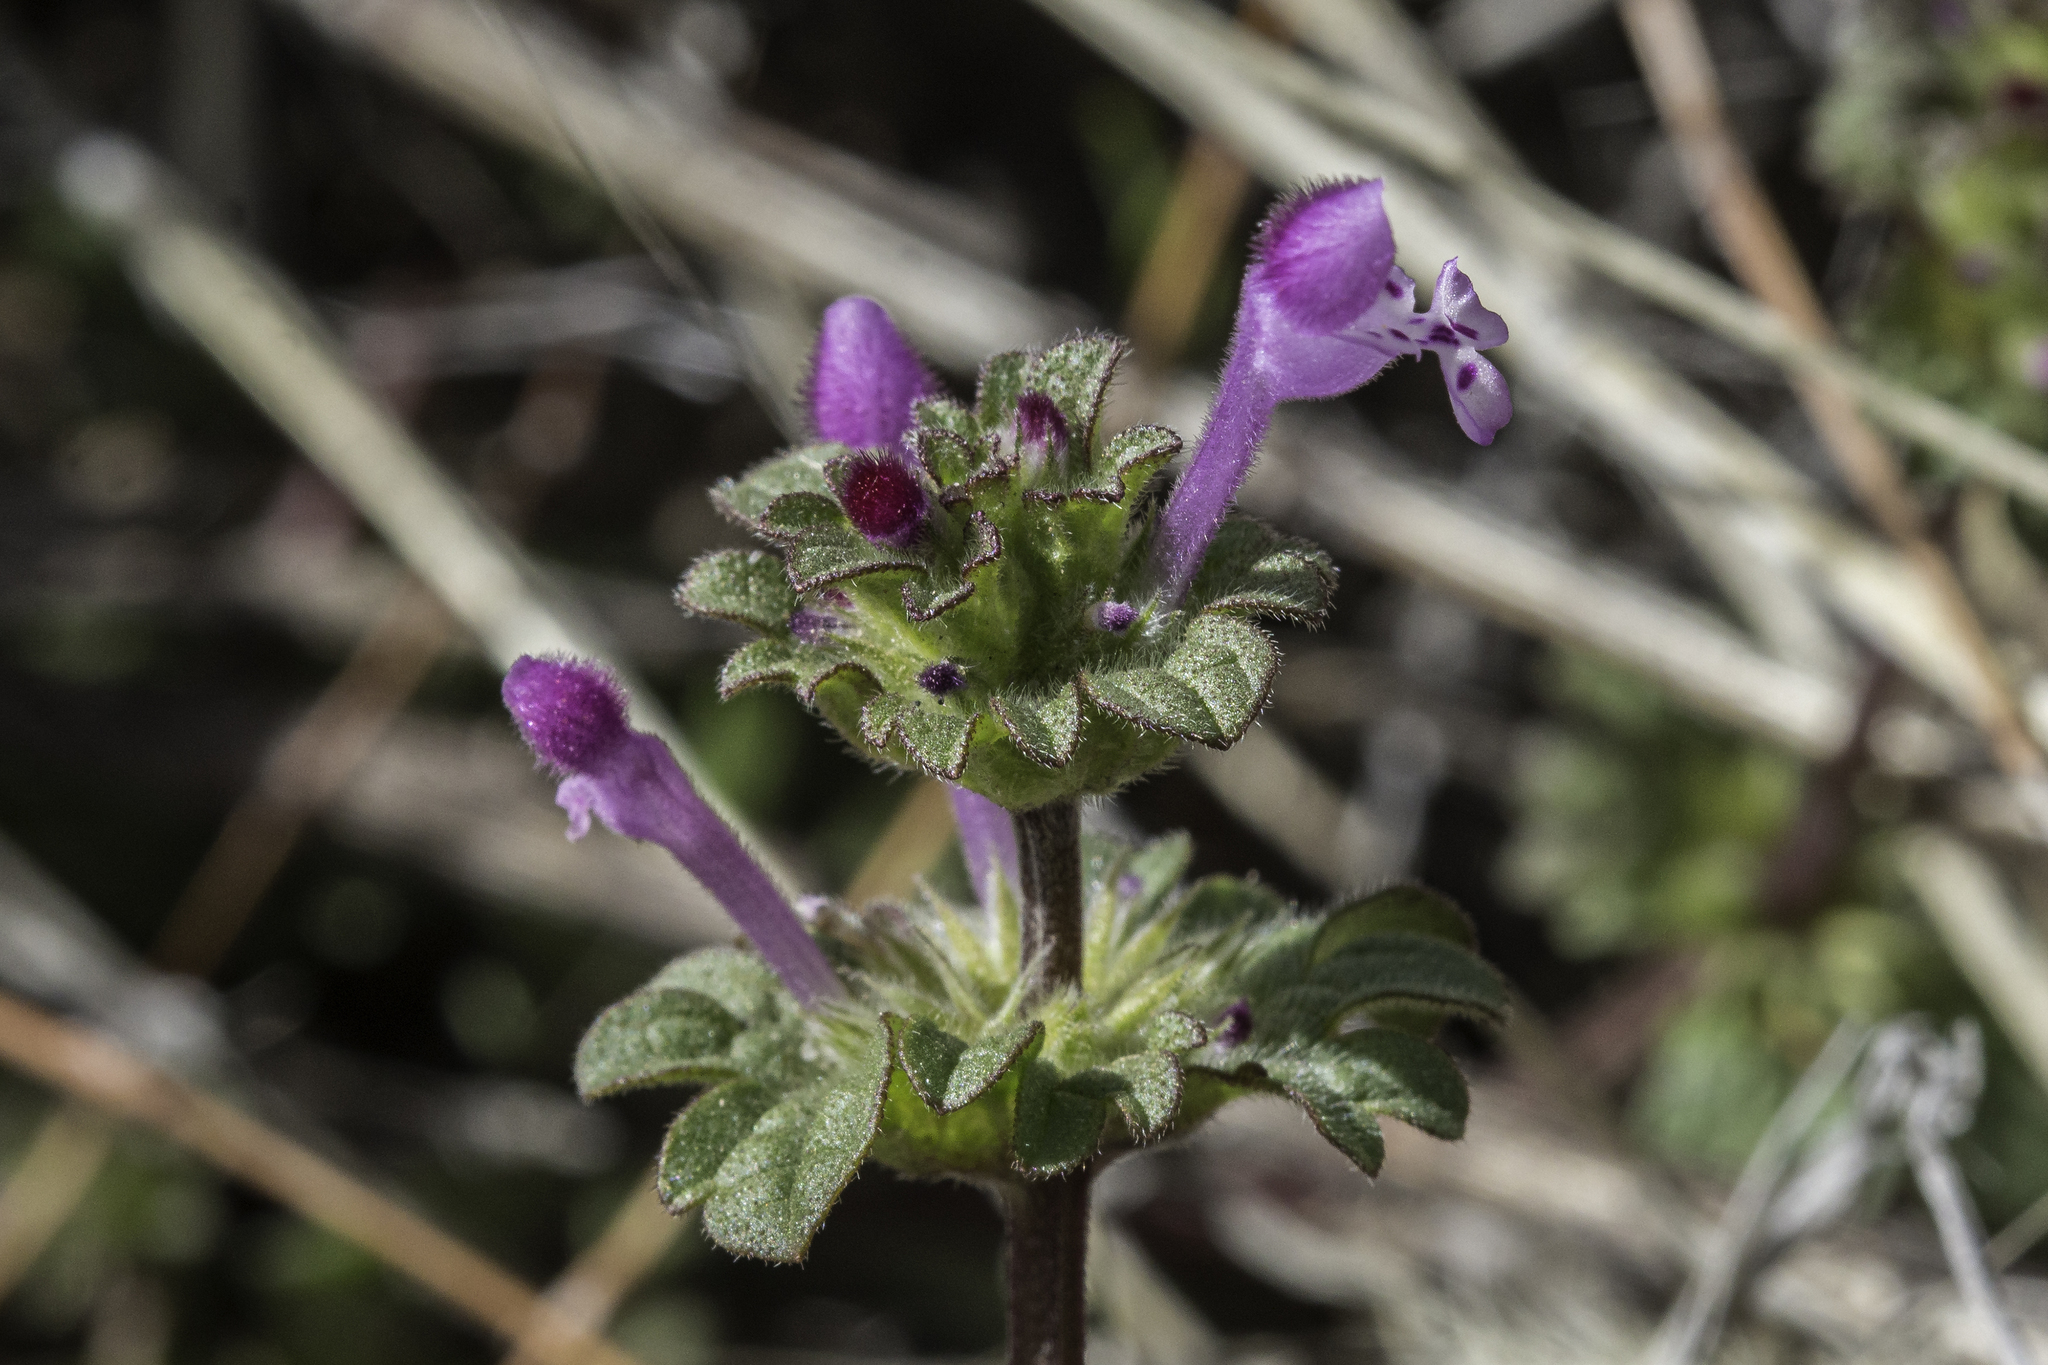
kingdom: Plantae
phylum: Tracheophyta
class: Magnoliopsida
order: Lamiales
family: Lamiaceae
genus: Lamium
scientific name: Lamium amplexicaule
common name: Henbit dead-nettle
